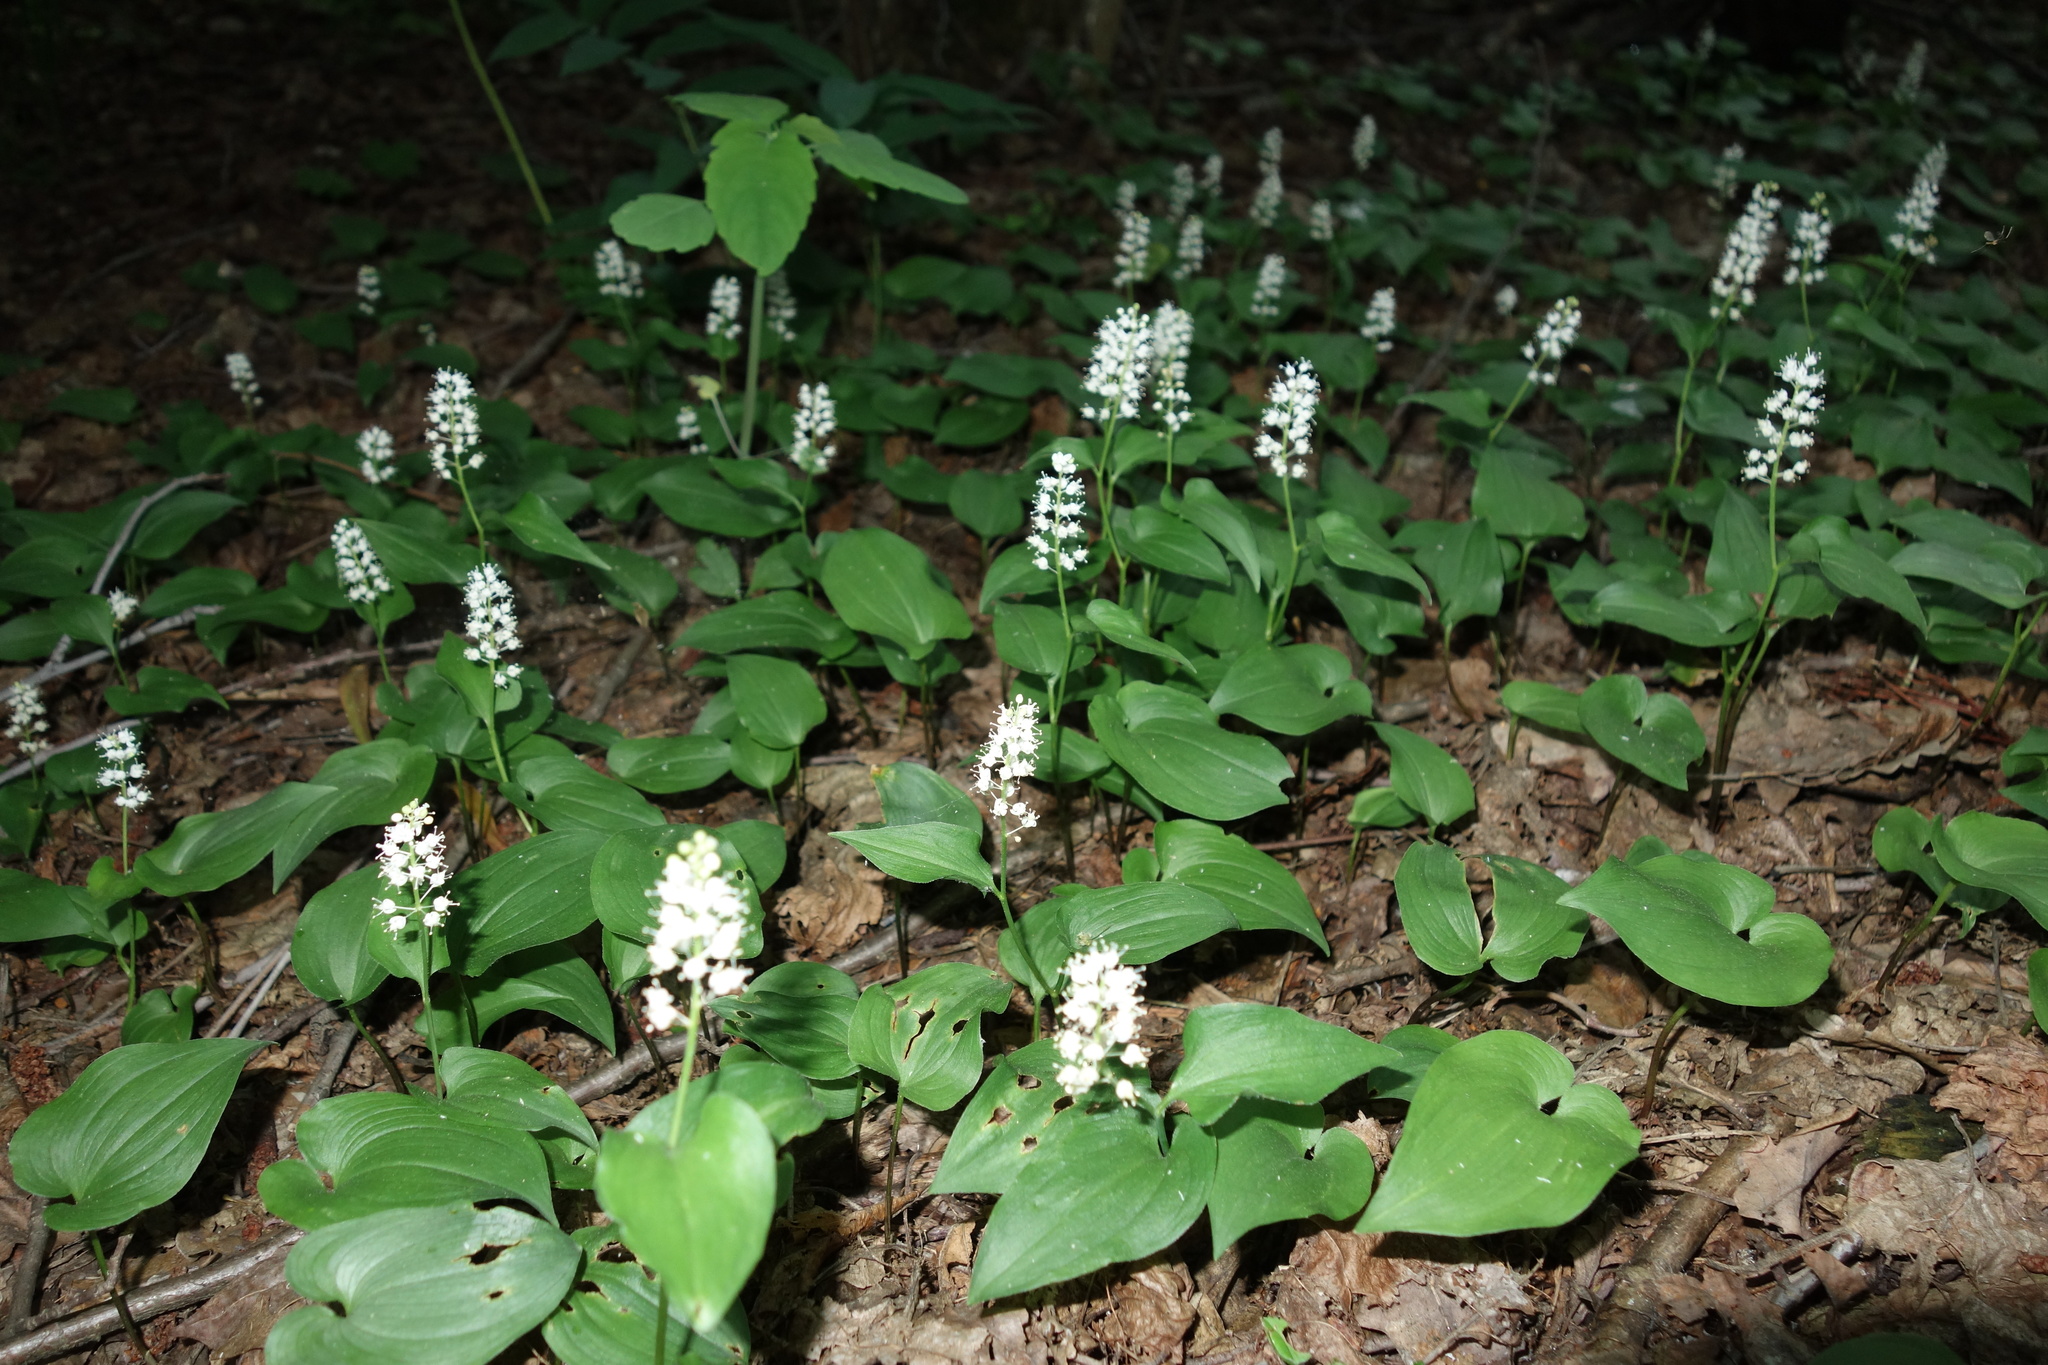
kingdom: Plantae
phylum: Tracheophyta
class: Liliopsida
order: Asparagales
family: Asparagaceae
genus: Maianthemum
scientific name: Maianthemum bifolium
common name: May lily
